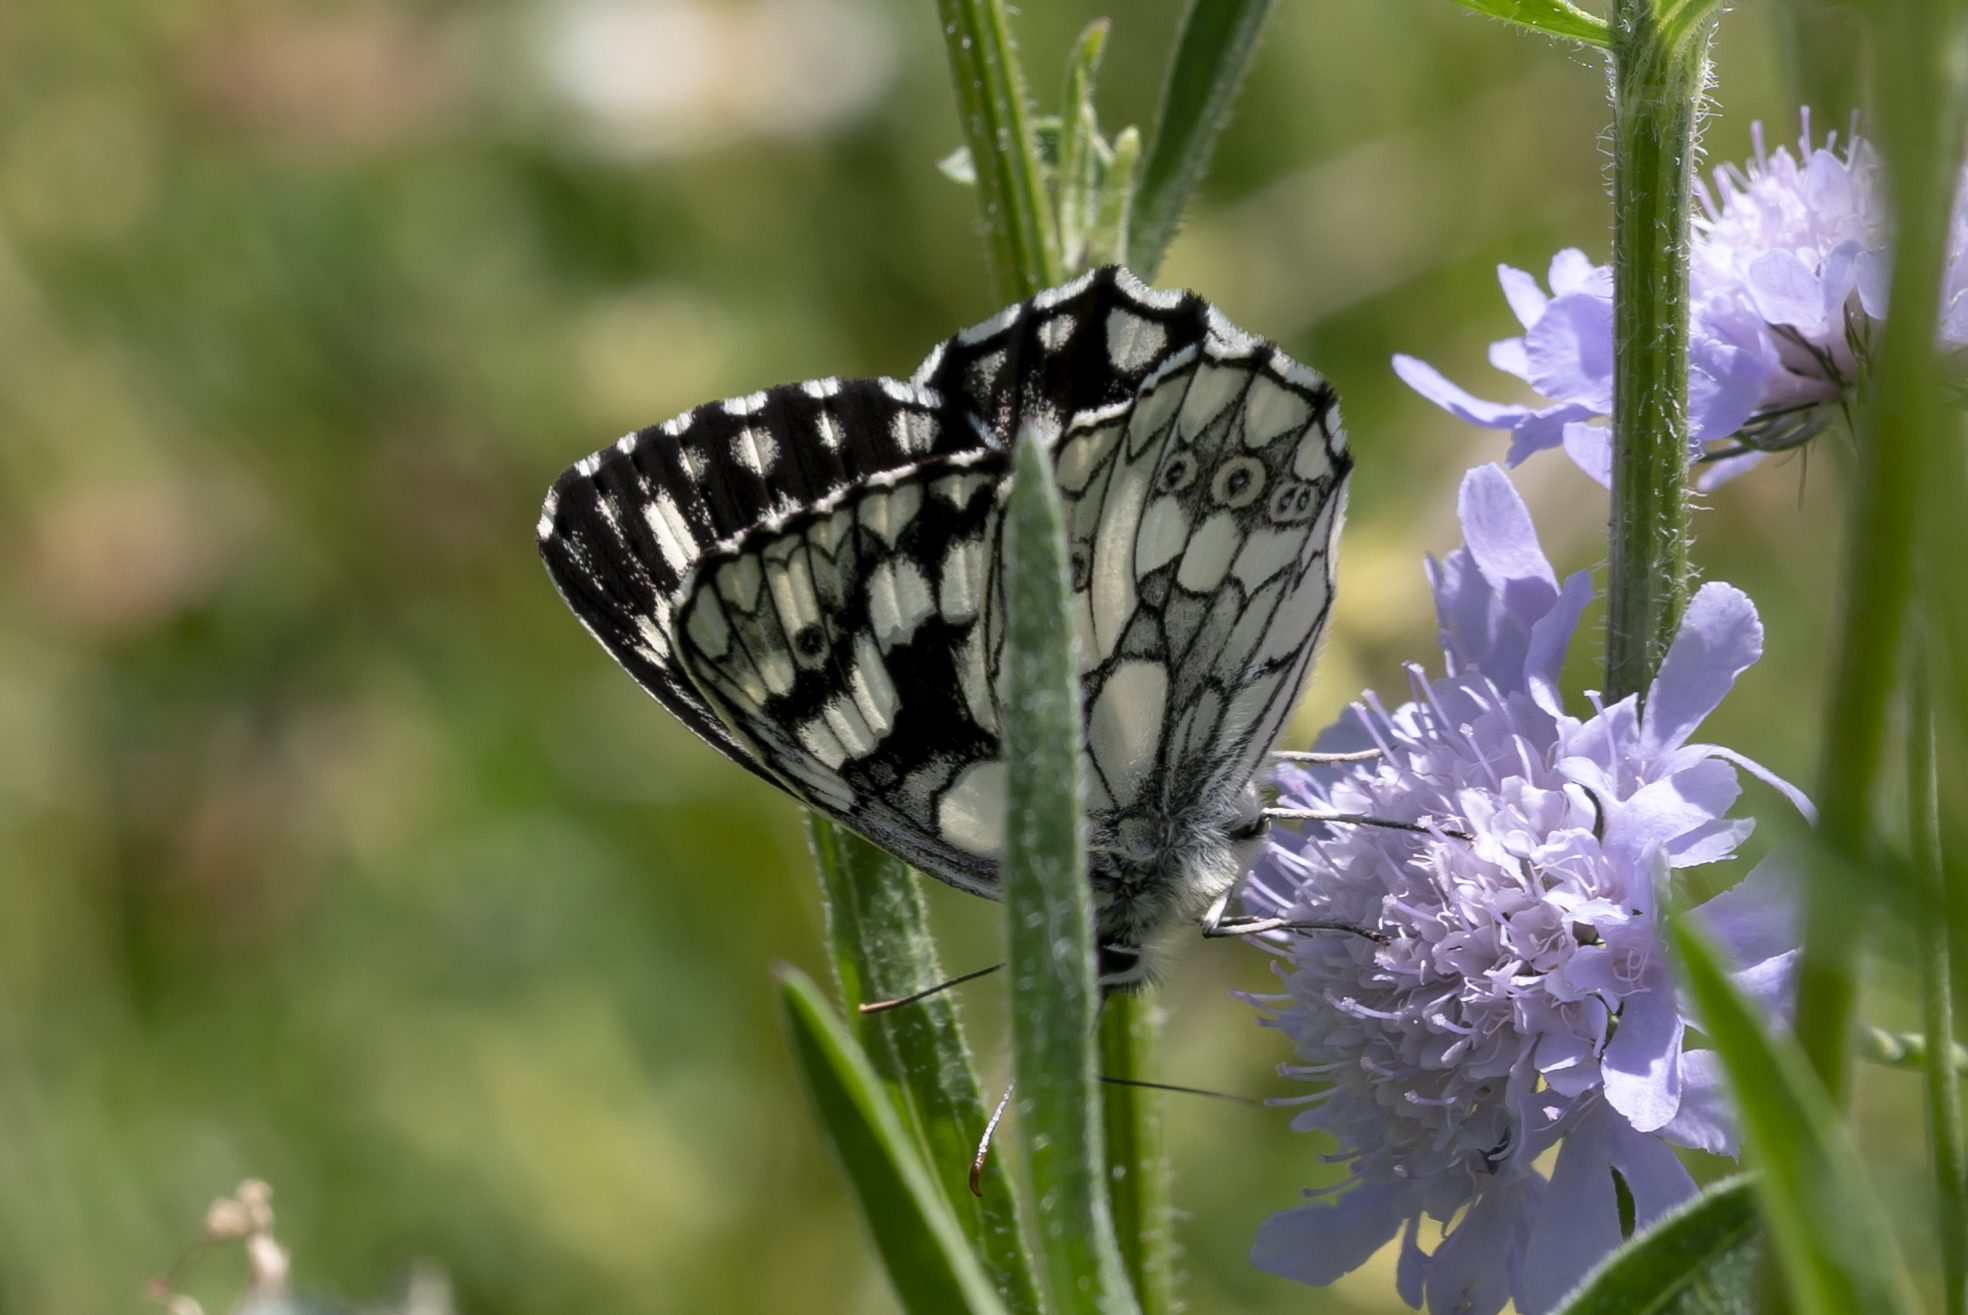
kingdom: Animalia
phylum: Arthropoda
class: Insecta
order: Lepidoptera
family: Nymphalidae
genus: Melanargia
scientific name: Melanargia galathea
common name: Marbled white
